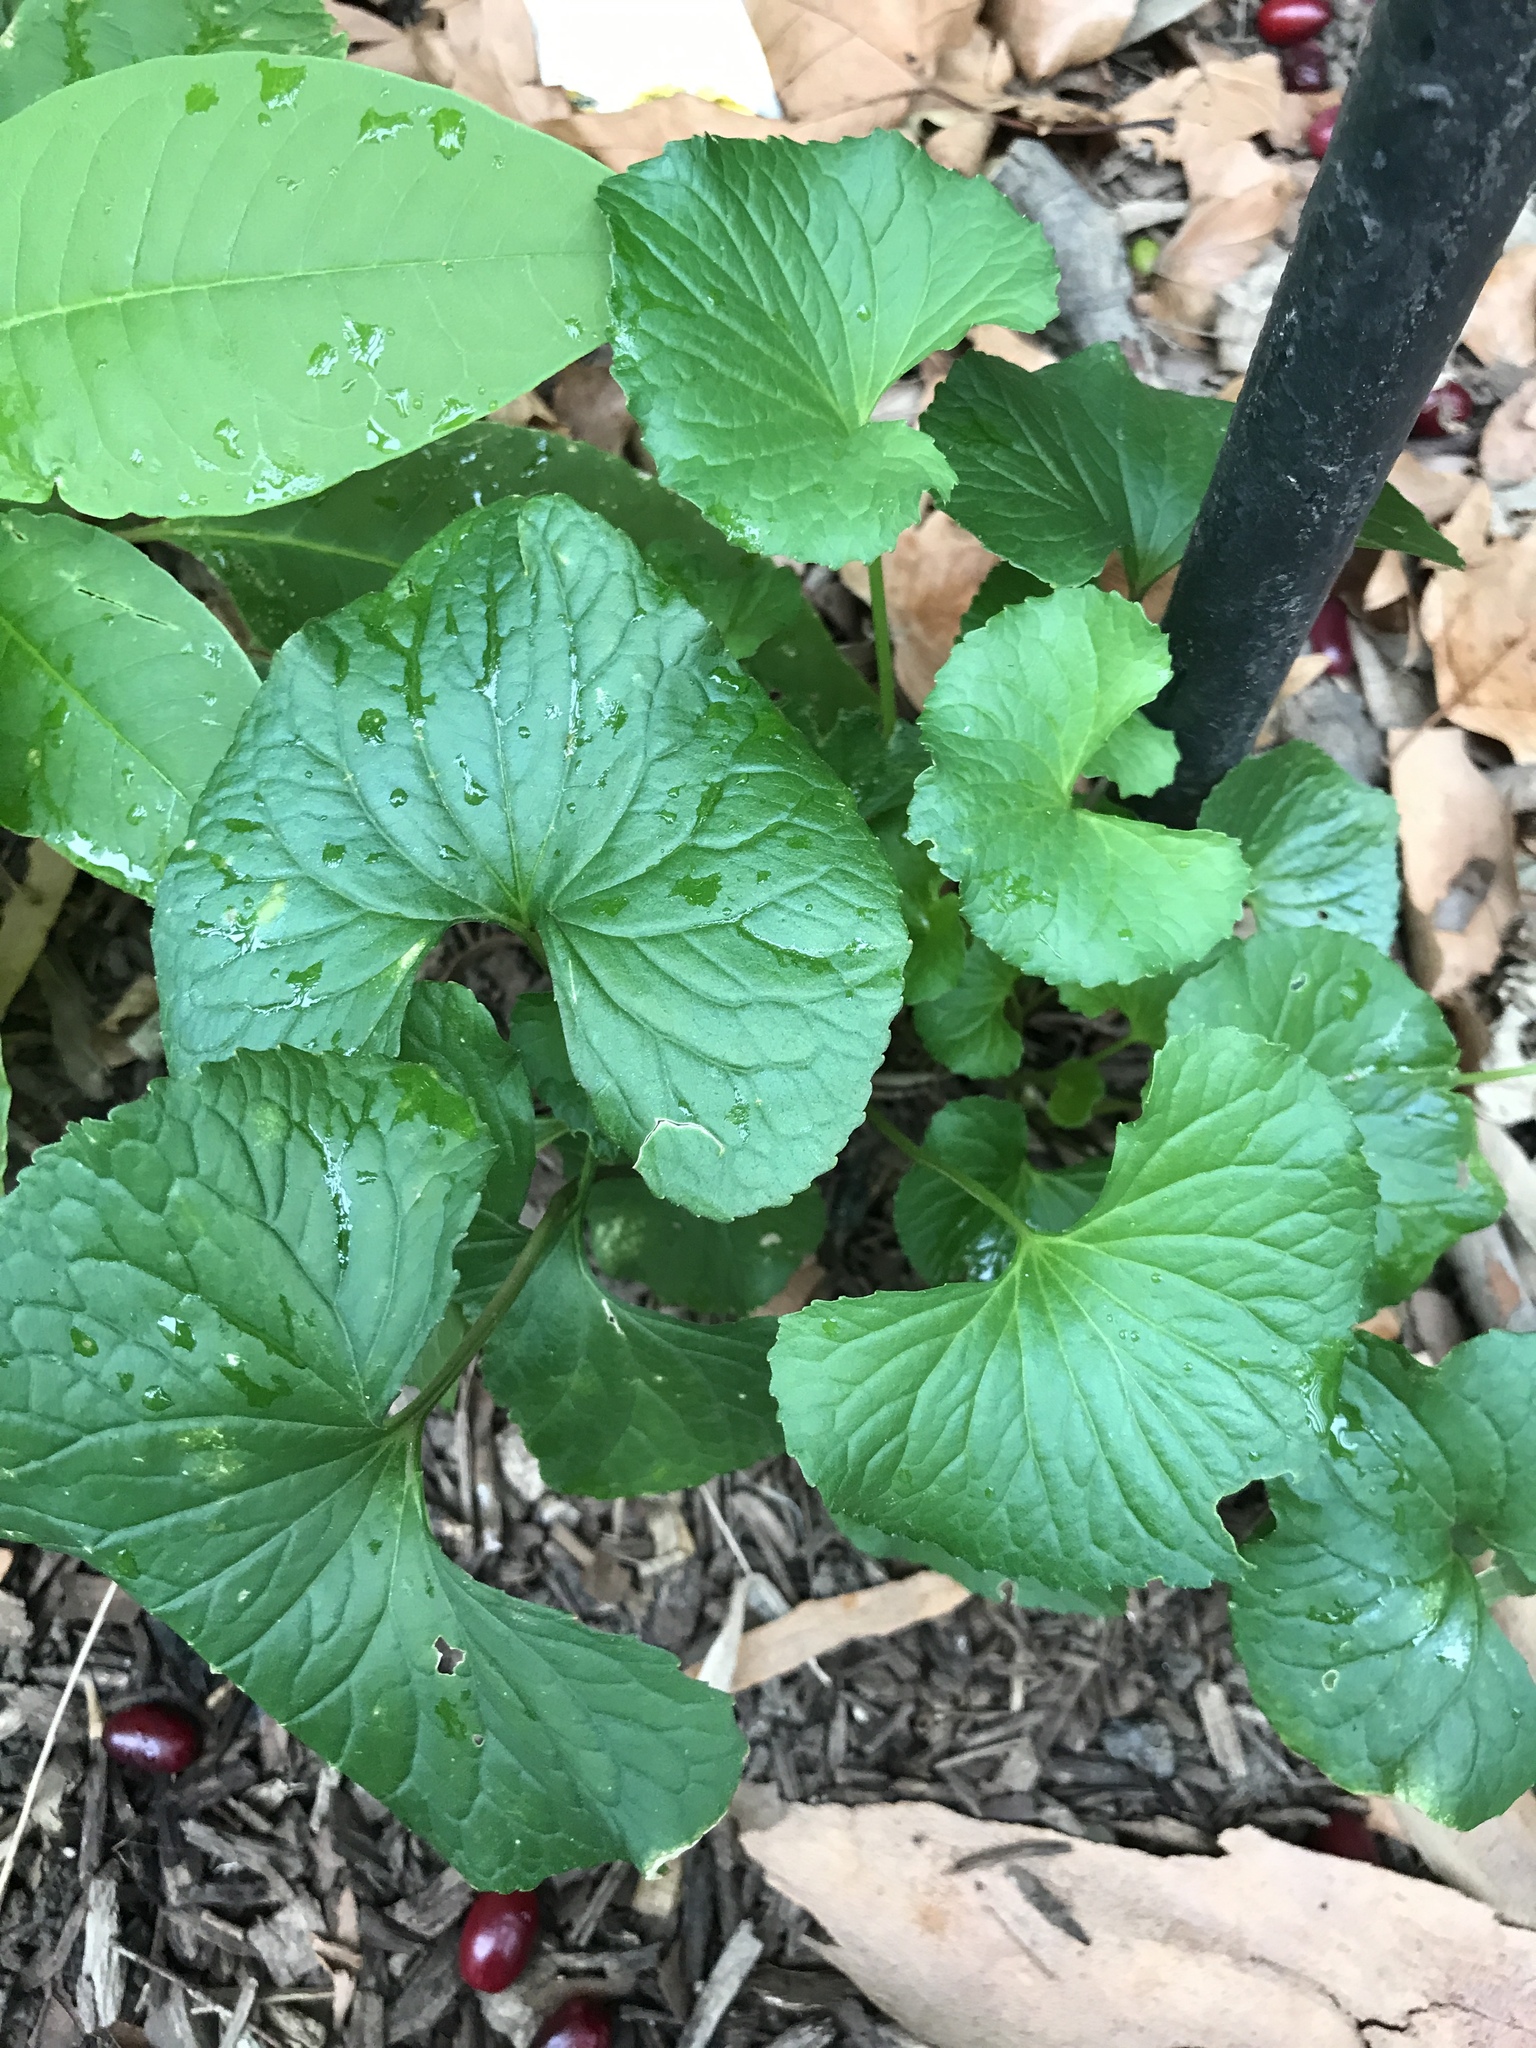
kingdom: Plantae
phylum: Tracheophyta
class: Magnoliopsida
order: Malpighiales
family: Violaceae
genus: Viola
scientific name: Viola sororia
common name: Dooryard violet
